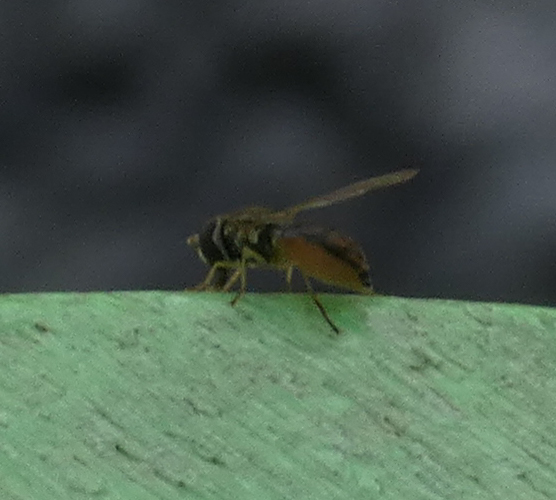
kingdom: Animalia
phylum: Arthropoda
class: Insecta
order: Diptera
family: Syrphidae
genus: Toxomerus
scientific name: Toxomerus marginatus
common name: Syrphid fly
